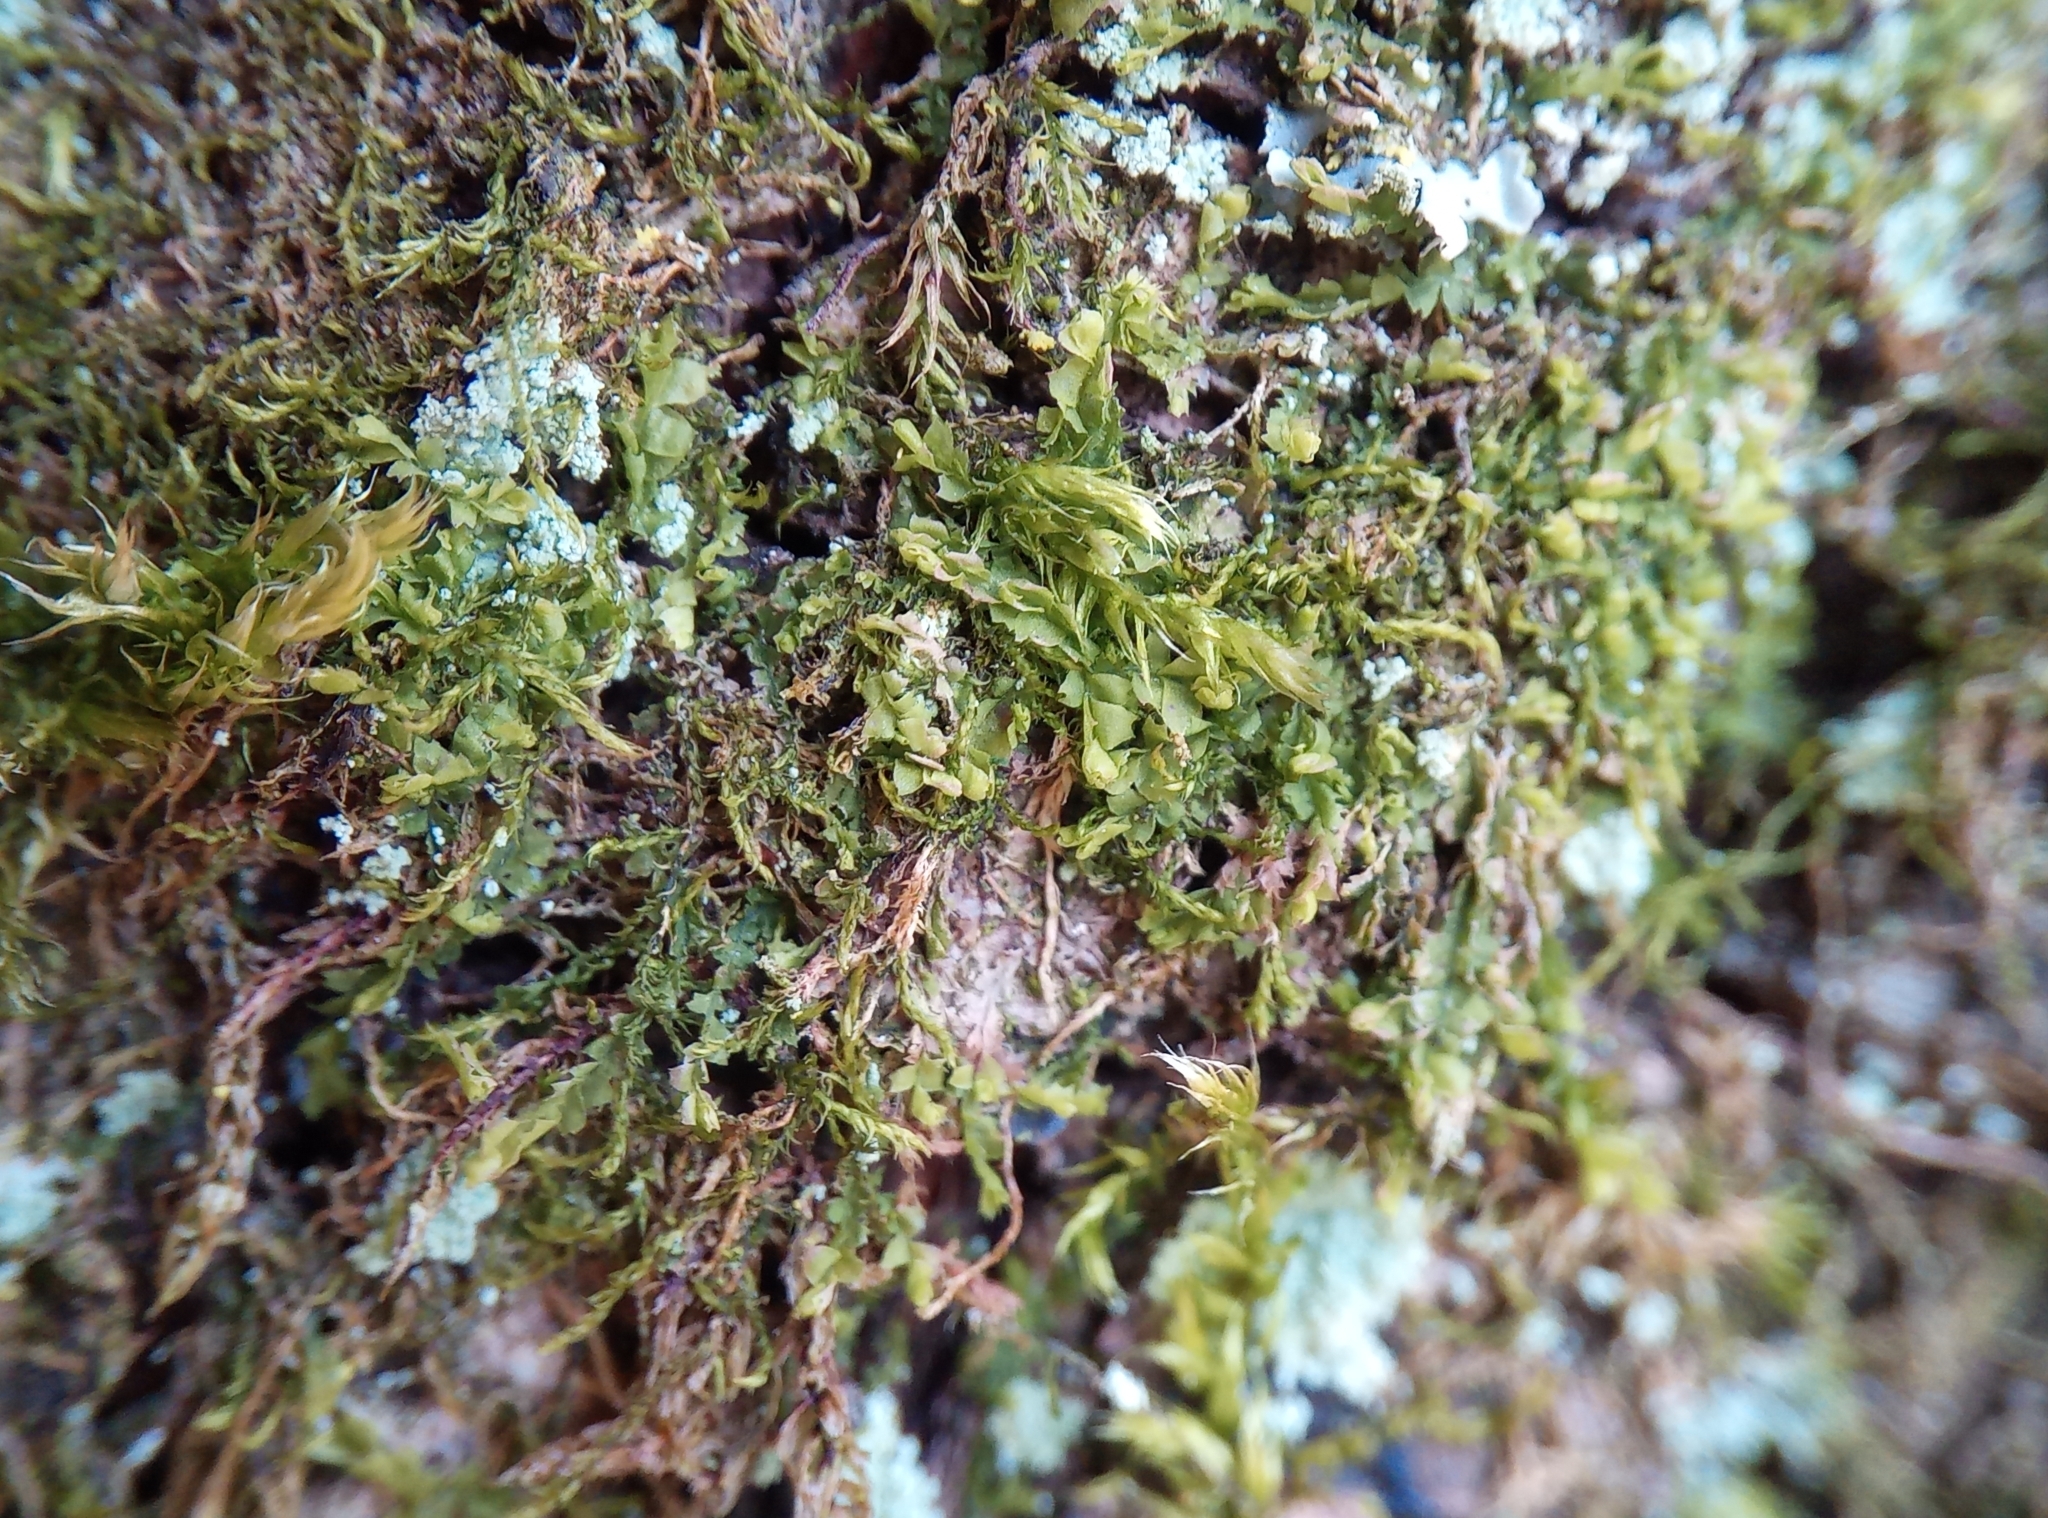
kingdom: Plantae
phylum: Marchantiophyta
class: Jungermanniopsida
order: Jungermanniales
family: Lophocoleaceae
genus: Lophocolea
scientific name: Lophocolea heterophylla
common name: Variable-leaved crestwort
